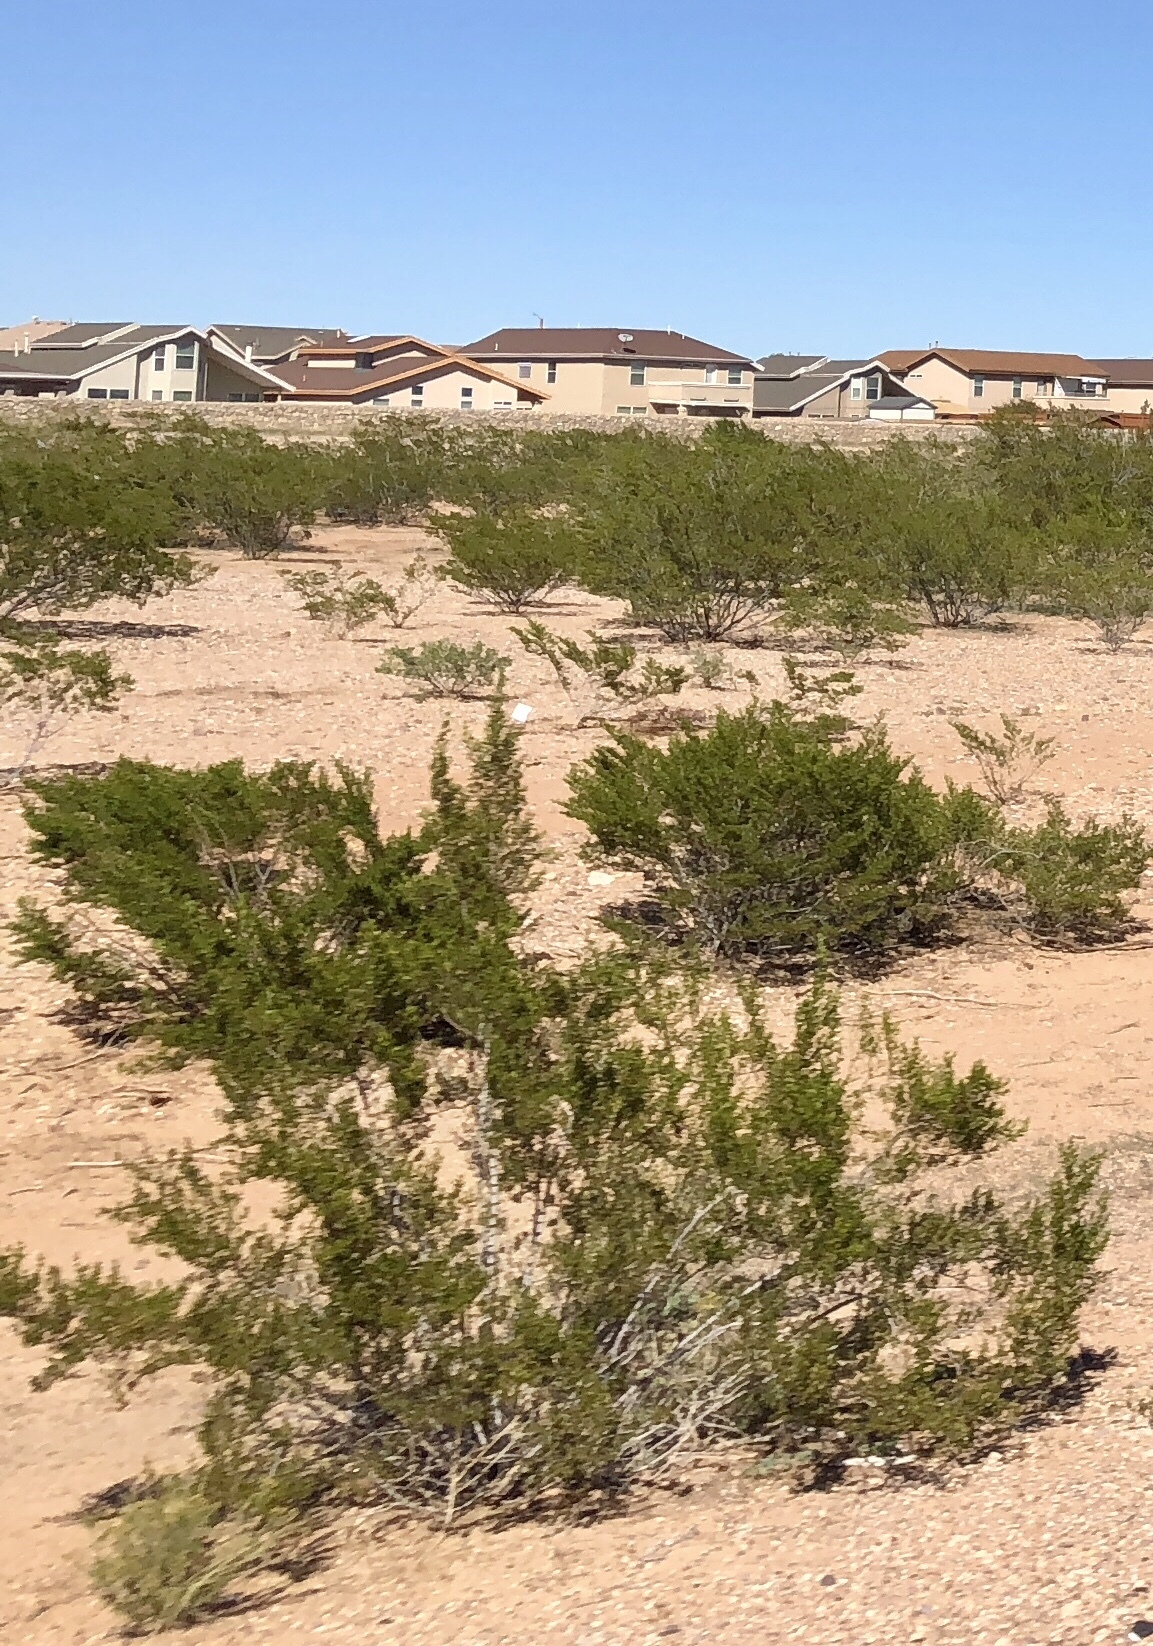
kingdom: Plantae
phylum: Tracheophyta
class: Magnoliopsida
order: Zygophyllales
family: Zygophyllaceae
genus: Larrea
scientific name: Larrea tridentata
